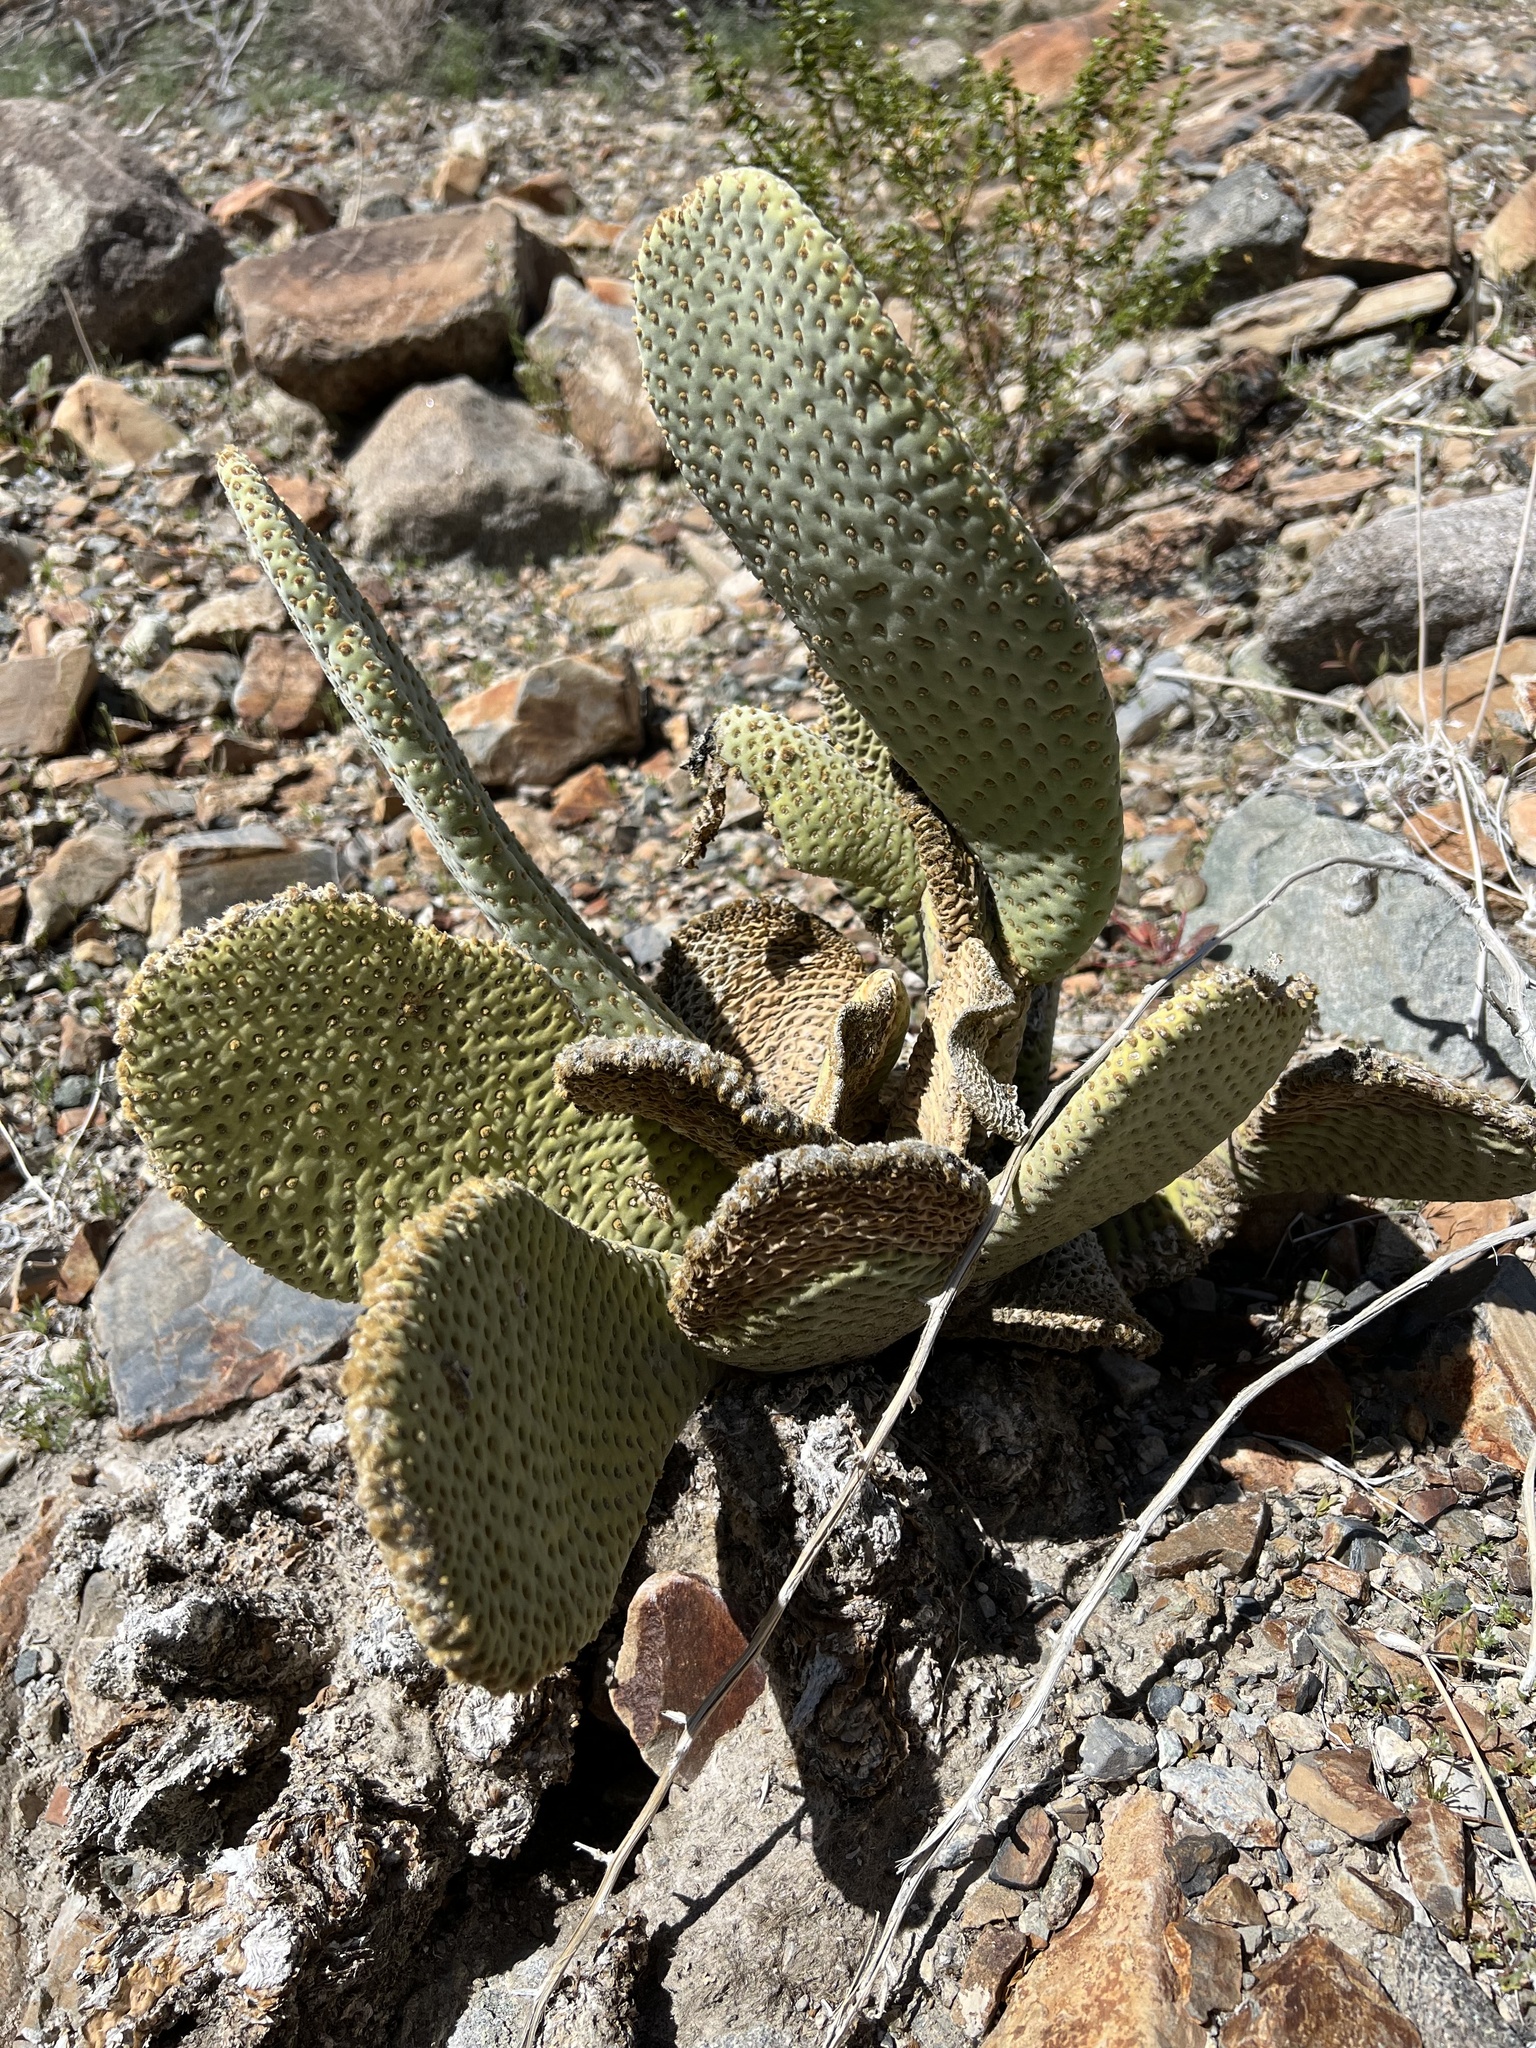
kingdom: Plantae
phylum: Tracheophyta
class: Magnoliopsida
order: Caryophyllales
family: Cactaceae
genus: Opuntia
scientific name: Opuntia basilaris
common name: Beavertail prickly-pear
